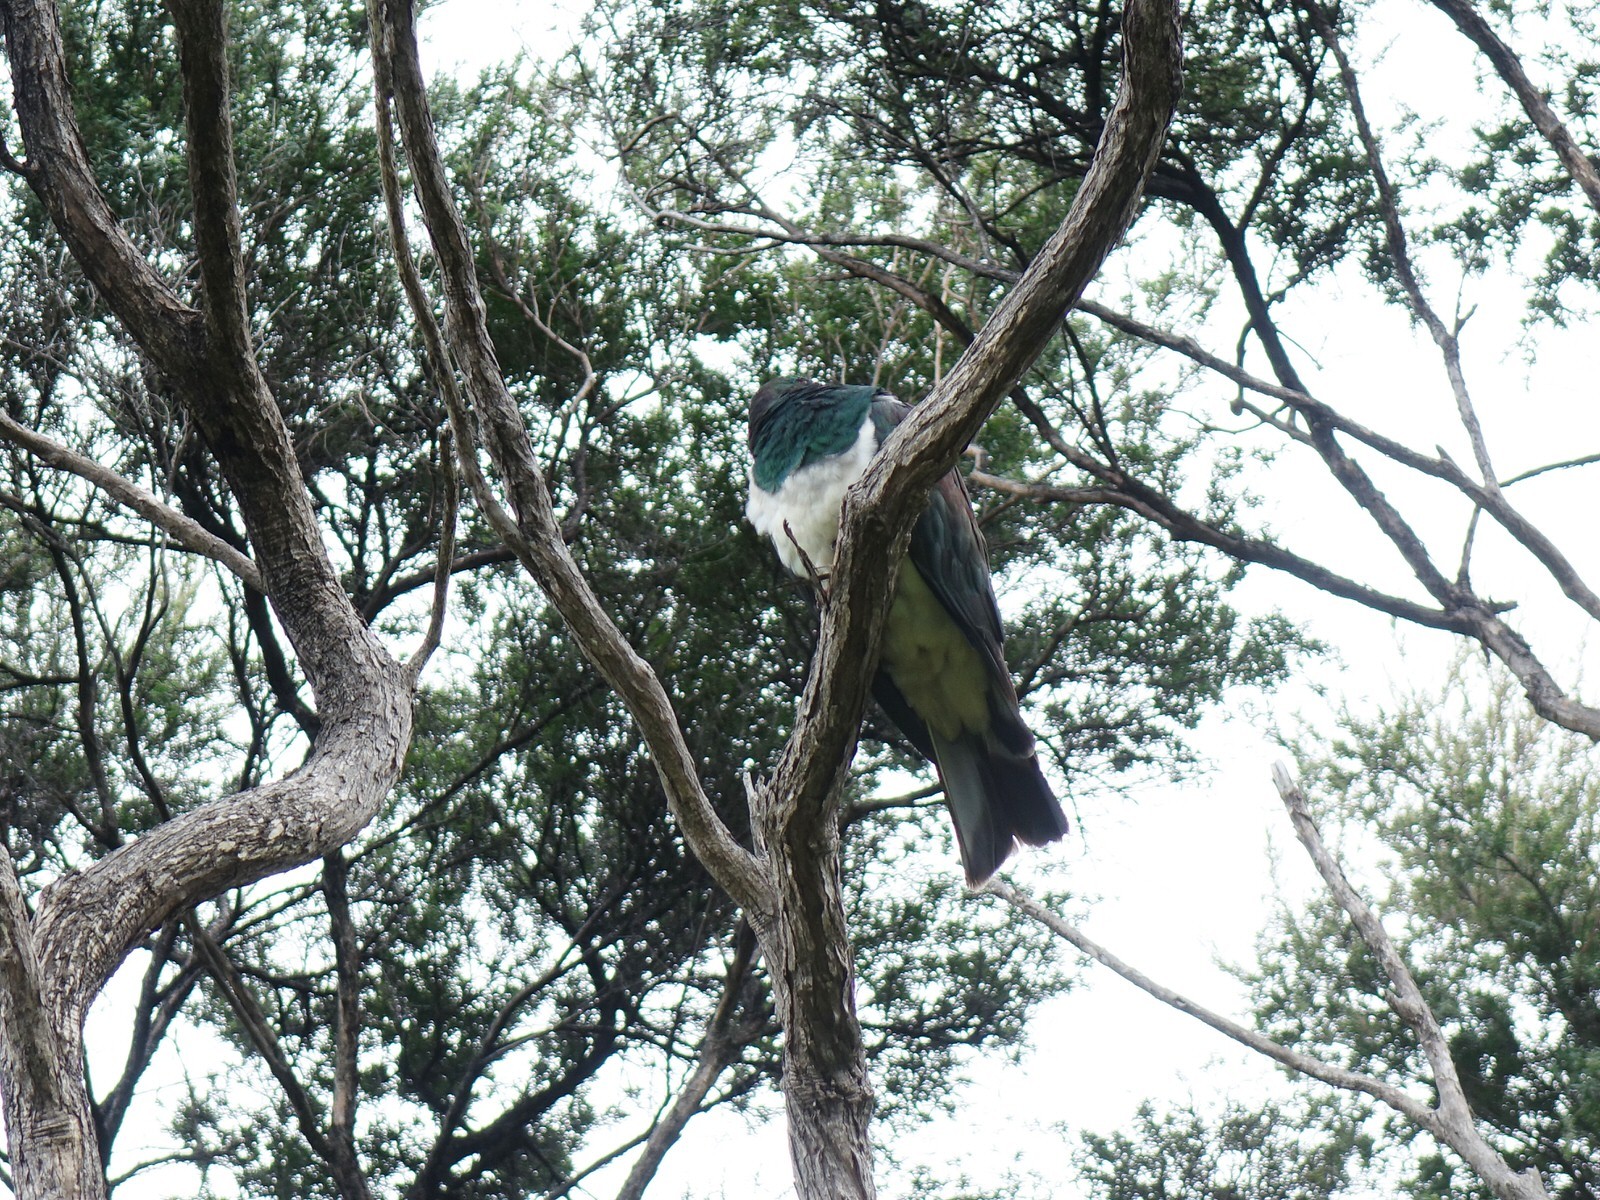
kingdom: Animalia
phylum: Chordata
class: Aves
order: Columbiformes
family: Columbidae
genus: Hemiphaga
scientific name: Hemiphaga novaeseelandiae
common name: New zealand pigeon
